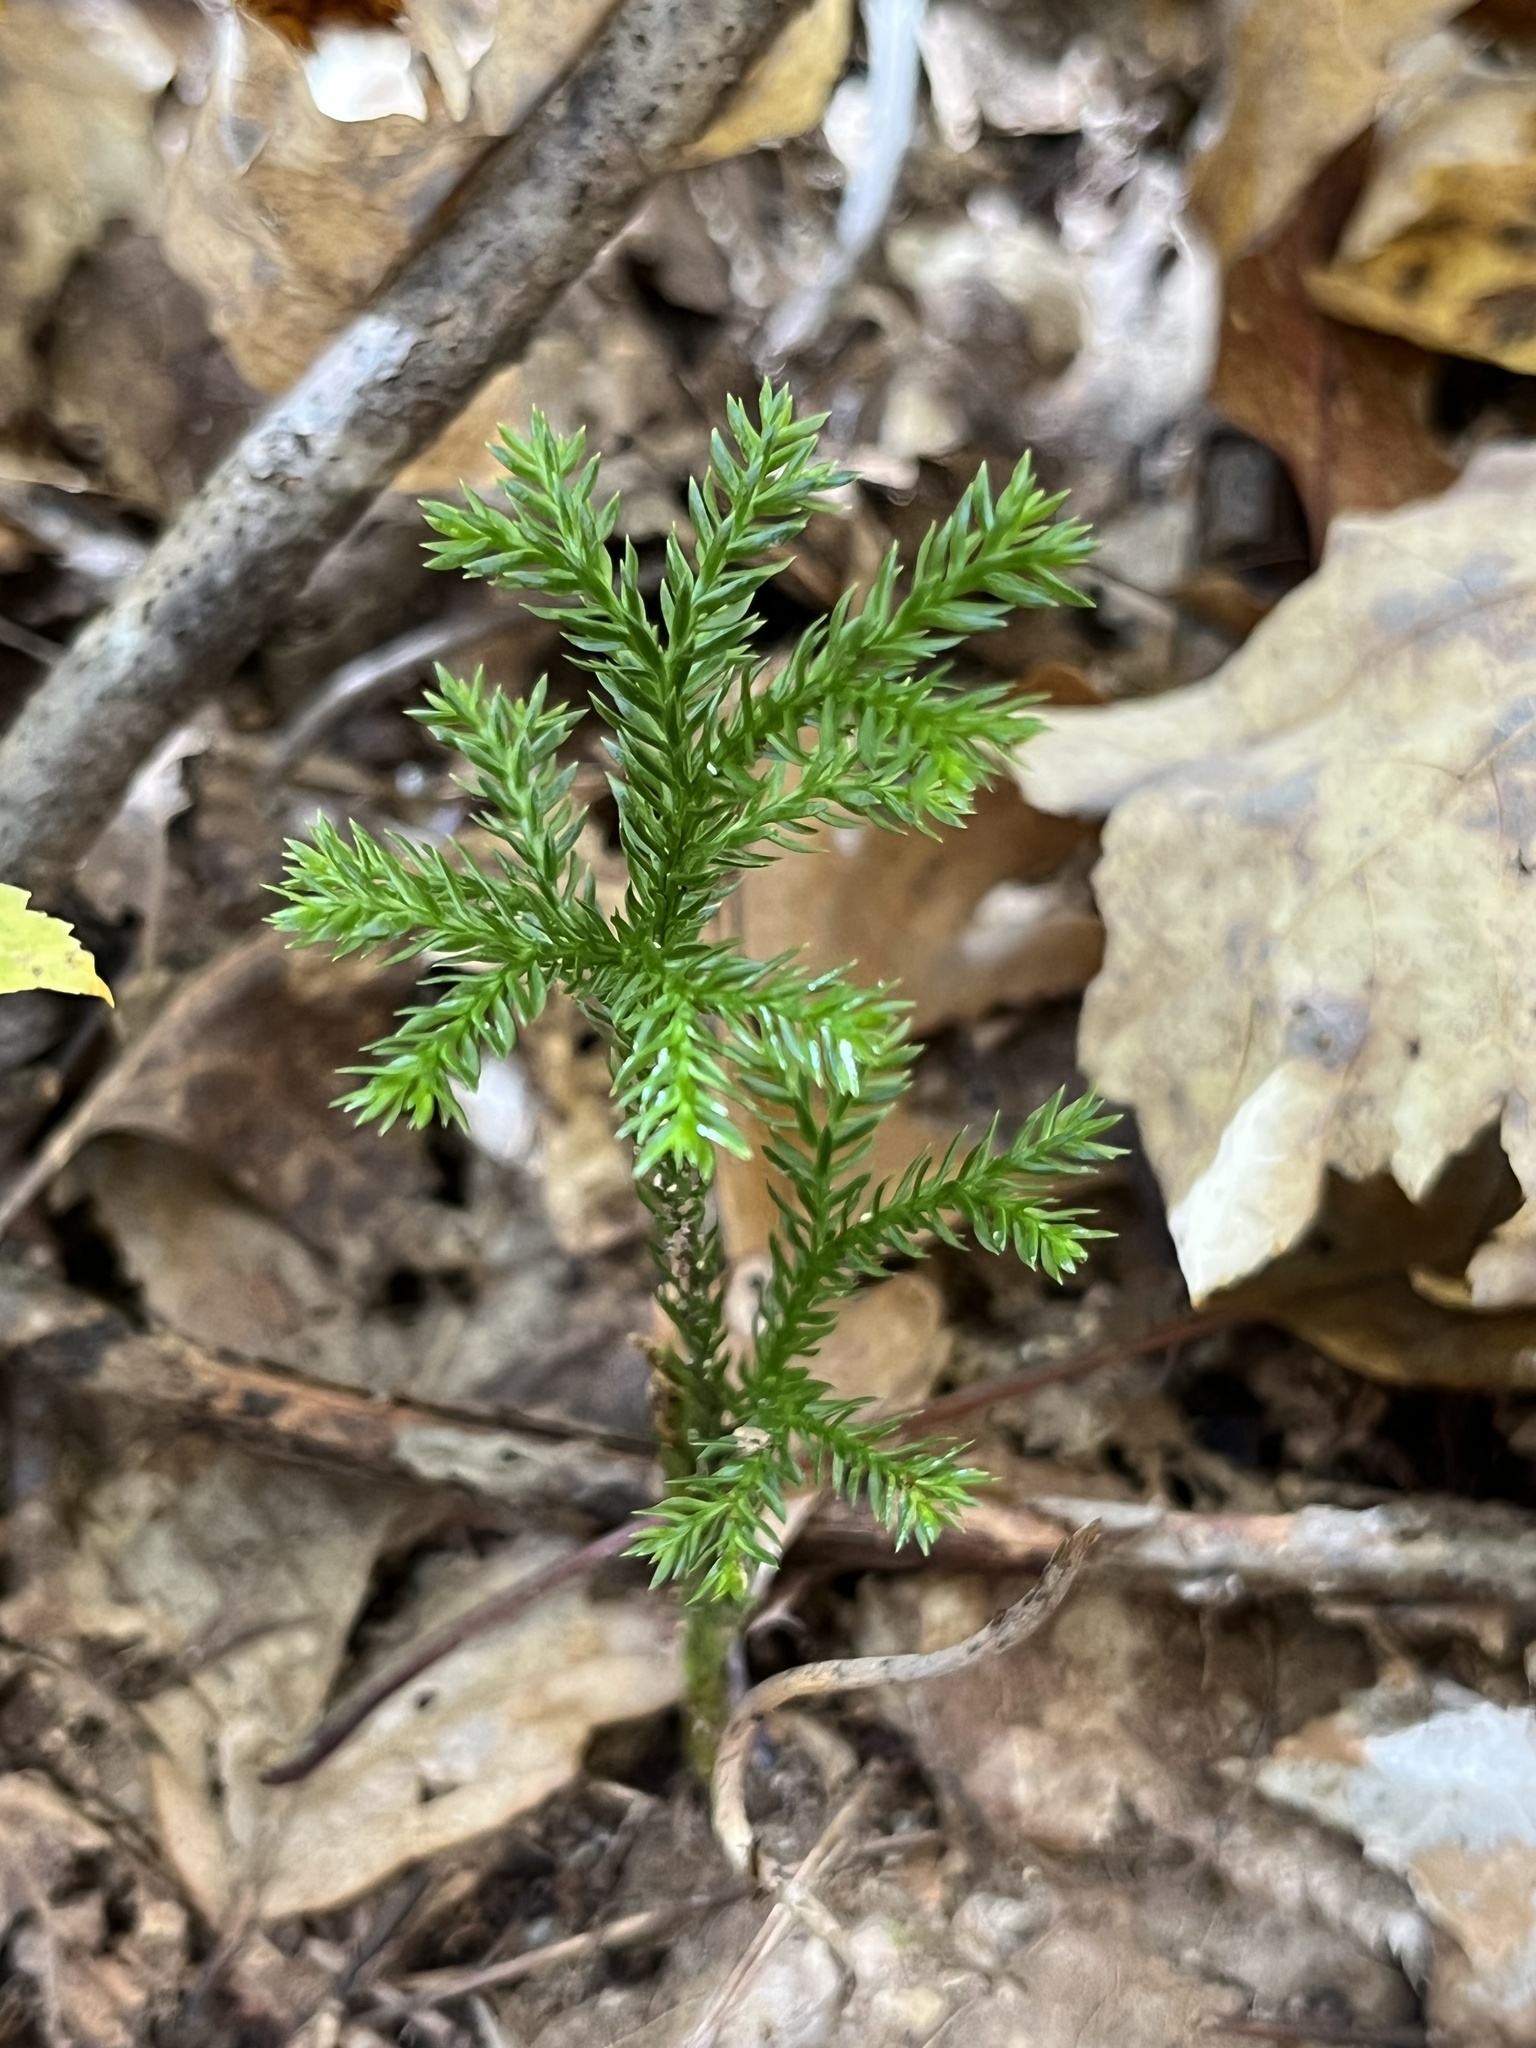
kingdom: Plantae
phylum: Tracheophyta
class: Lycopodiopsida
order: Lycopodiales
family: Lycopodiaceae
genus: Dendrolycopodium
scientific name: Dendrolycopodium dendroideum
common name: Northern tree-clubmoss
